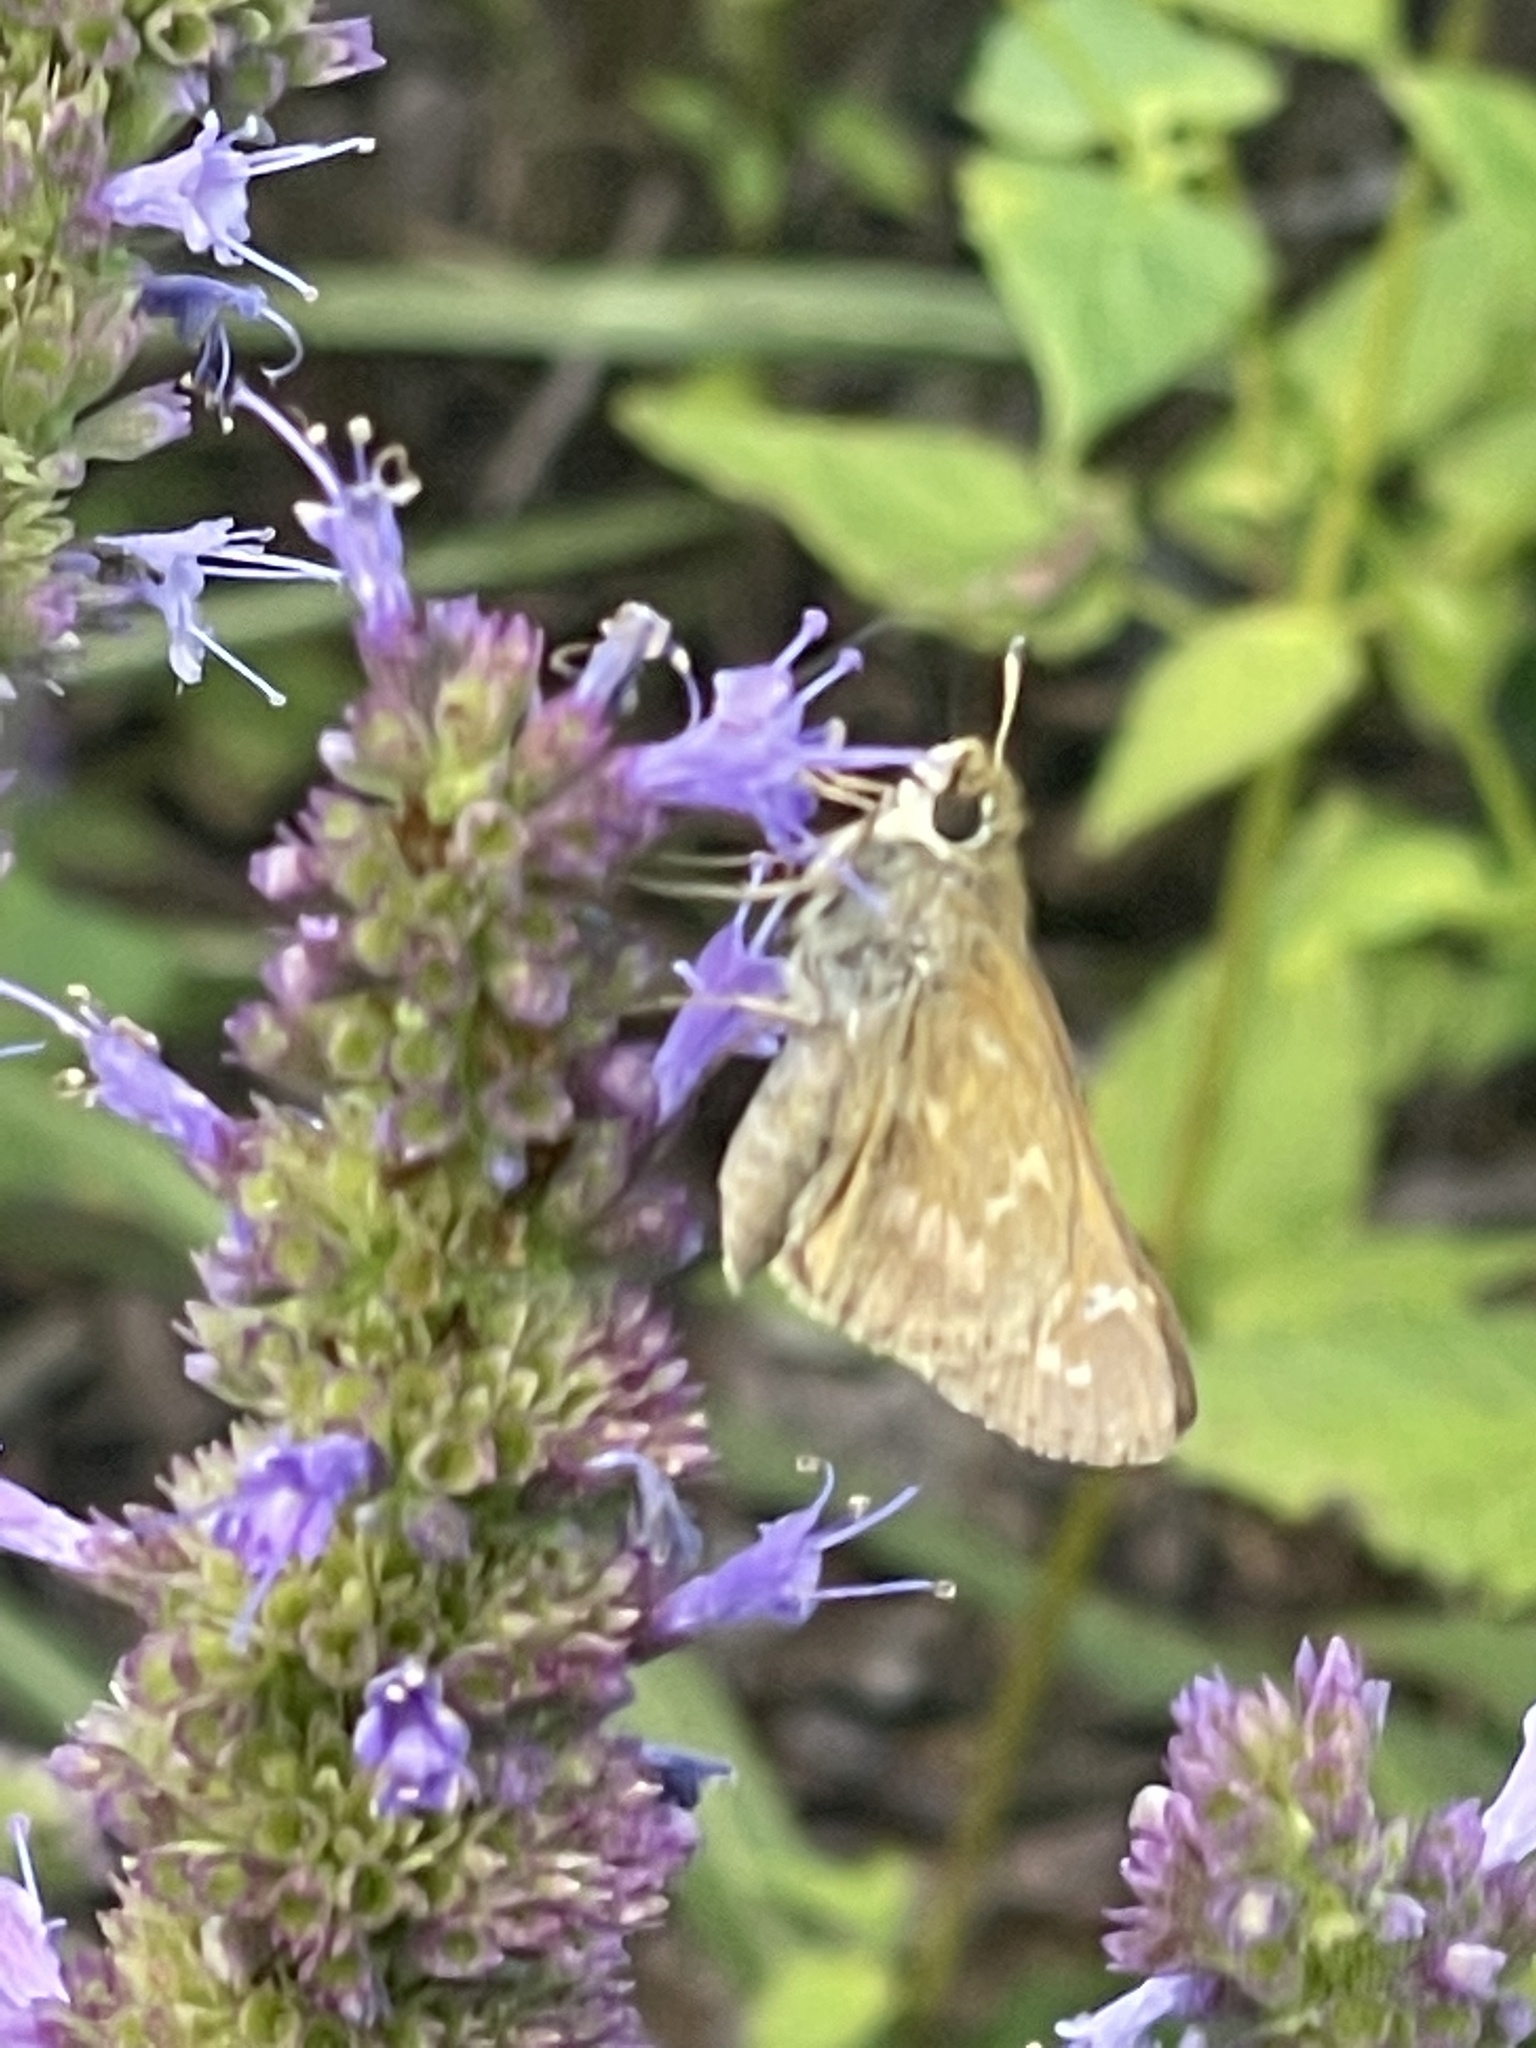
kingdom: Animalia
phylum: Arthropoda
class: Insecta
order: Lepidoptera
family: Hesperiidae
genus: Atalopedes
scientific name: Atalopedes
